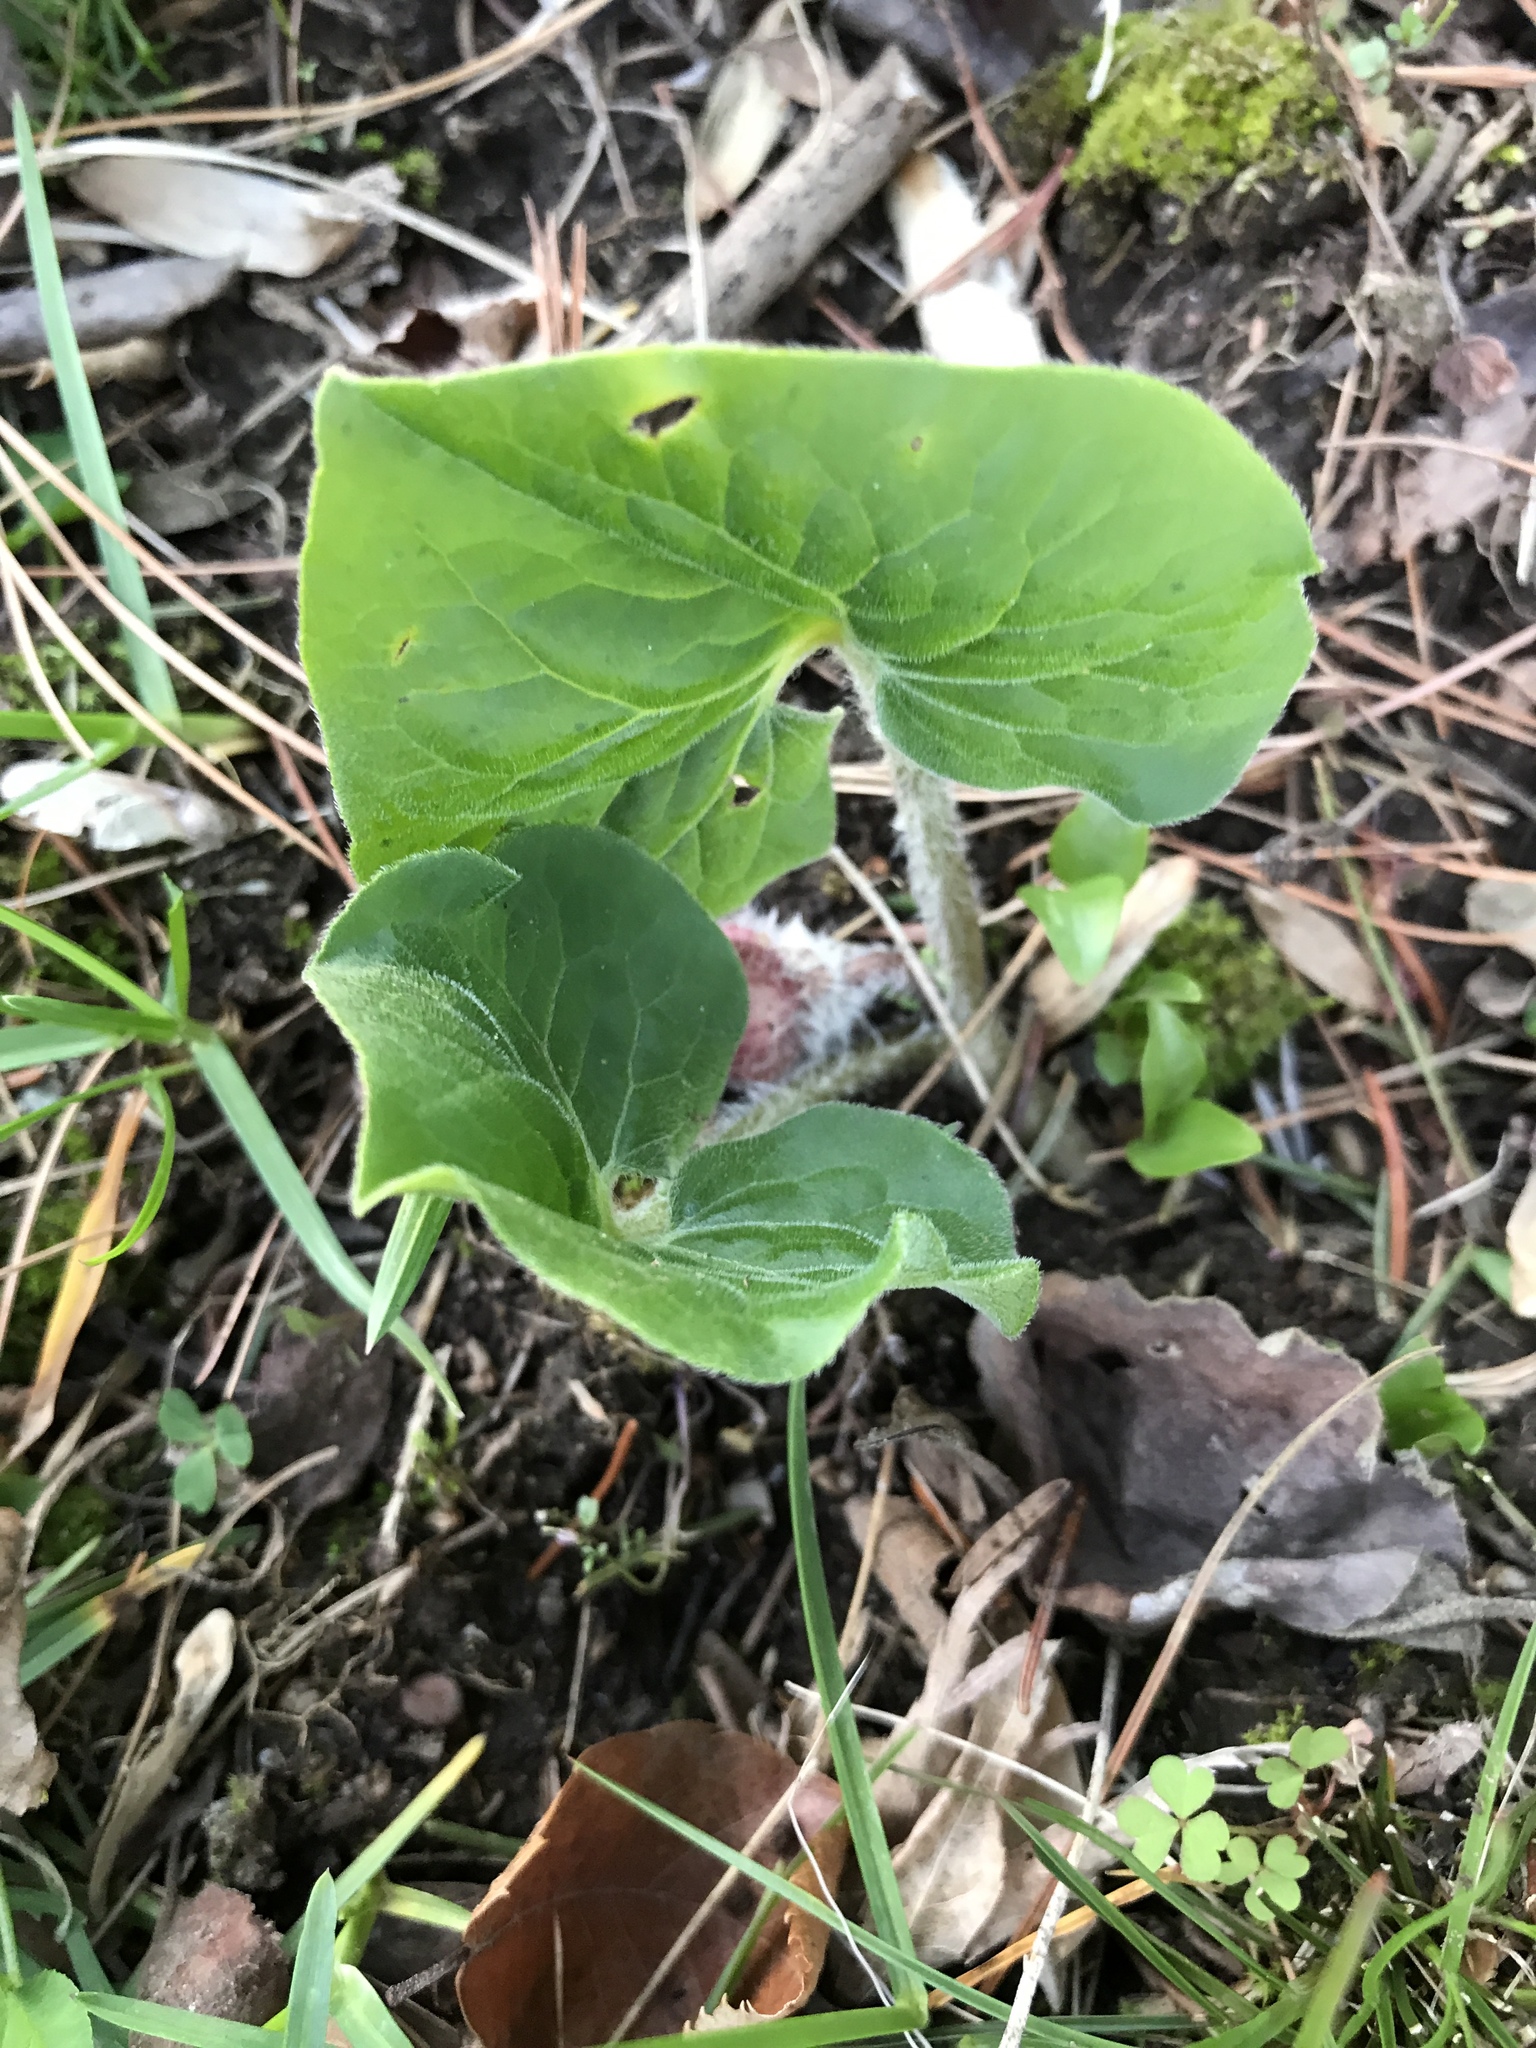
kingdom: Plantae
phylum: Tracheophyta
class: Magnoliopsida
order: Piperales
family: Aristolochiaceae
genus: Asarum
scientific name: Asarum canadense
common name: Wild ginger
